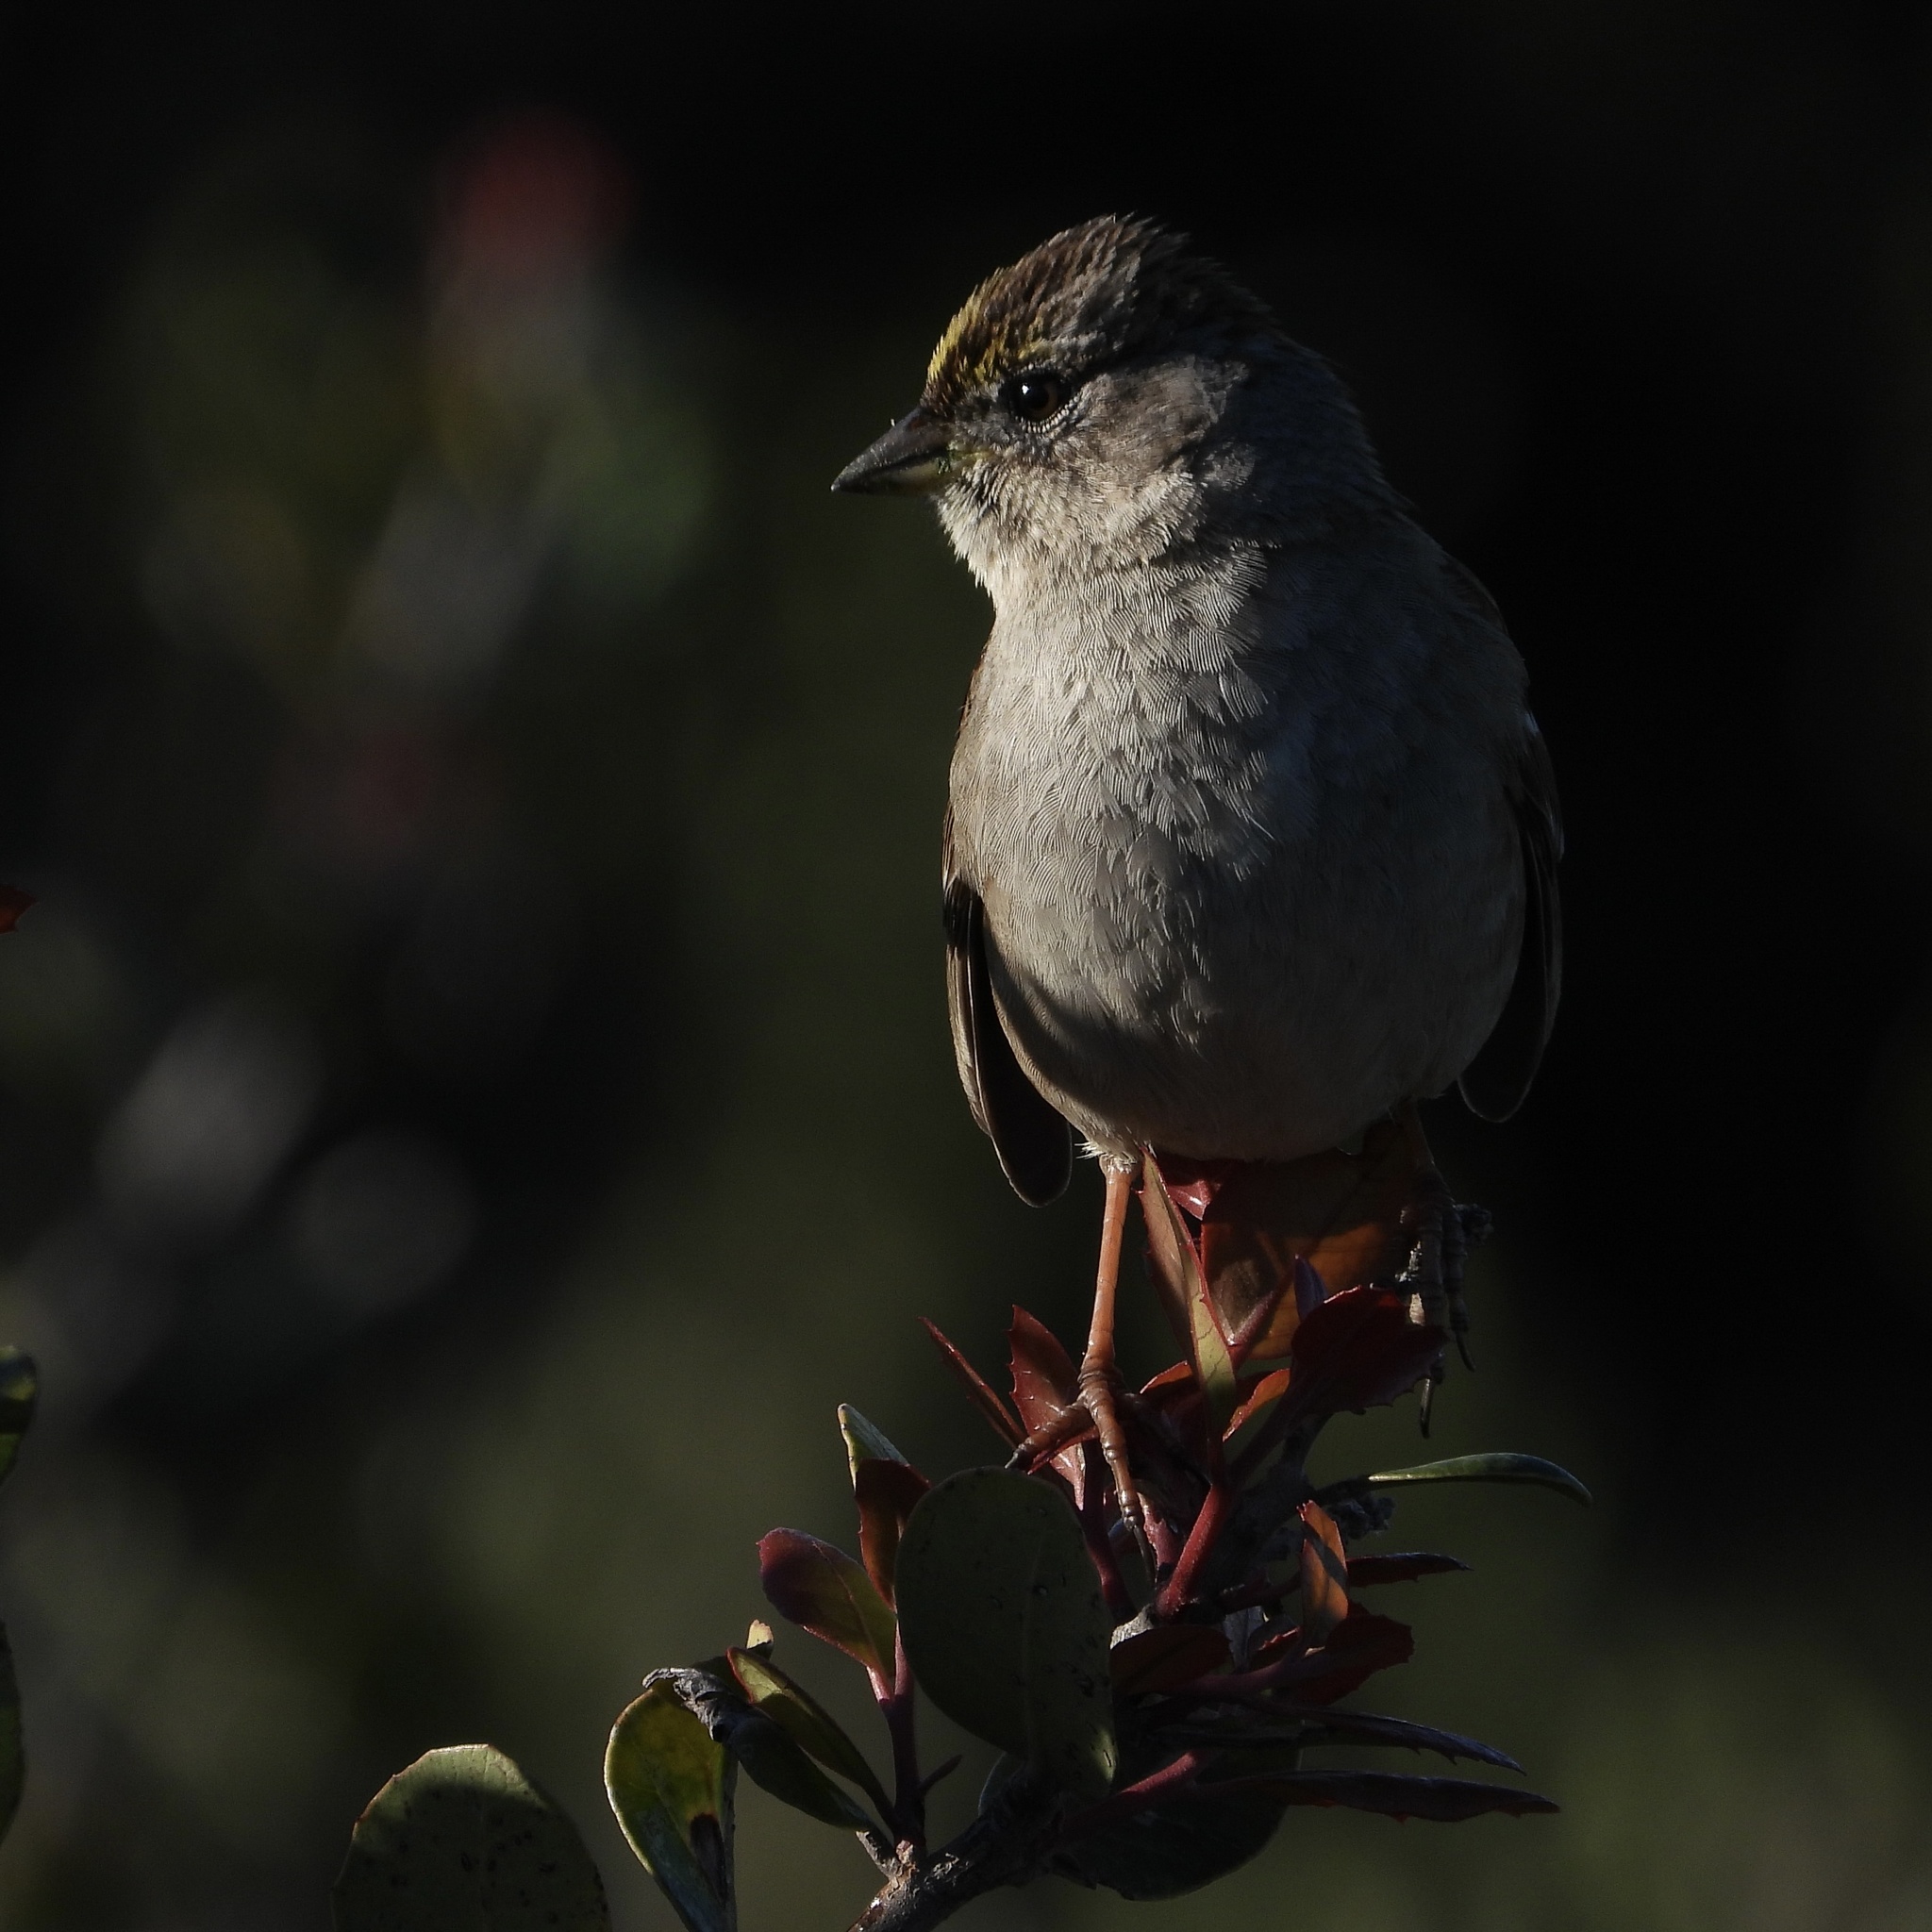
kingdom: Animalia
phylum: Chordata
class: Aves
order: Passeriformes
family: Passerellidae
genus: Zonotrichia
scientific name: Zonotrichia atricapilla
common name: Golden-crowned sparrow
